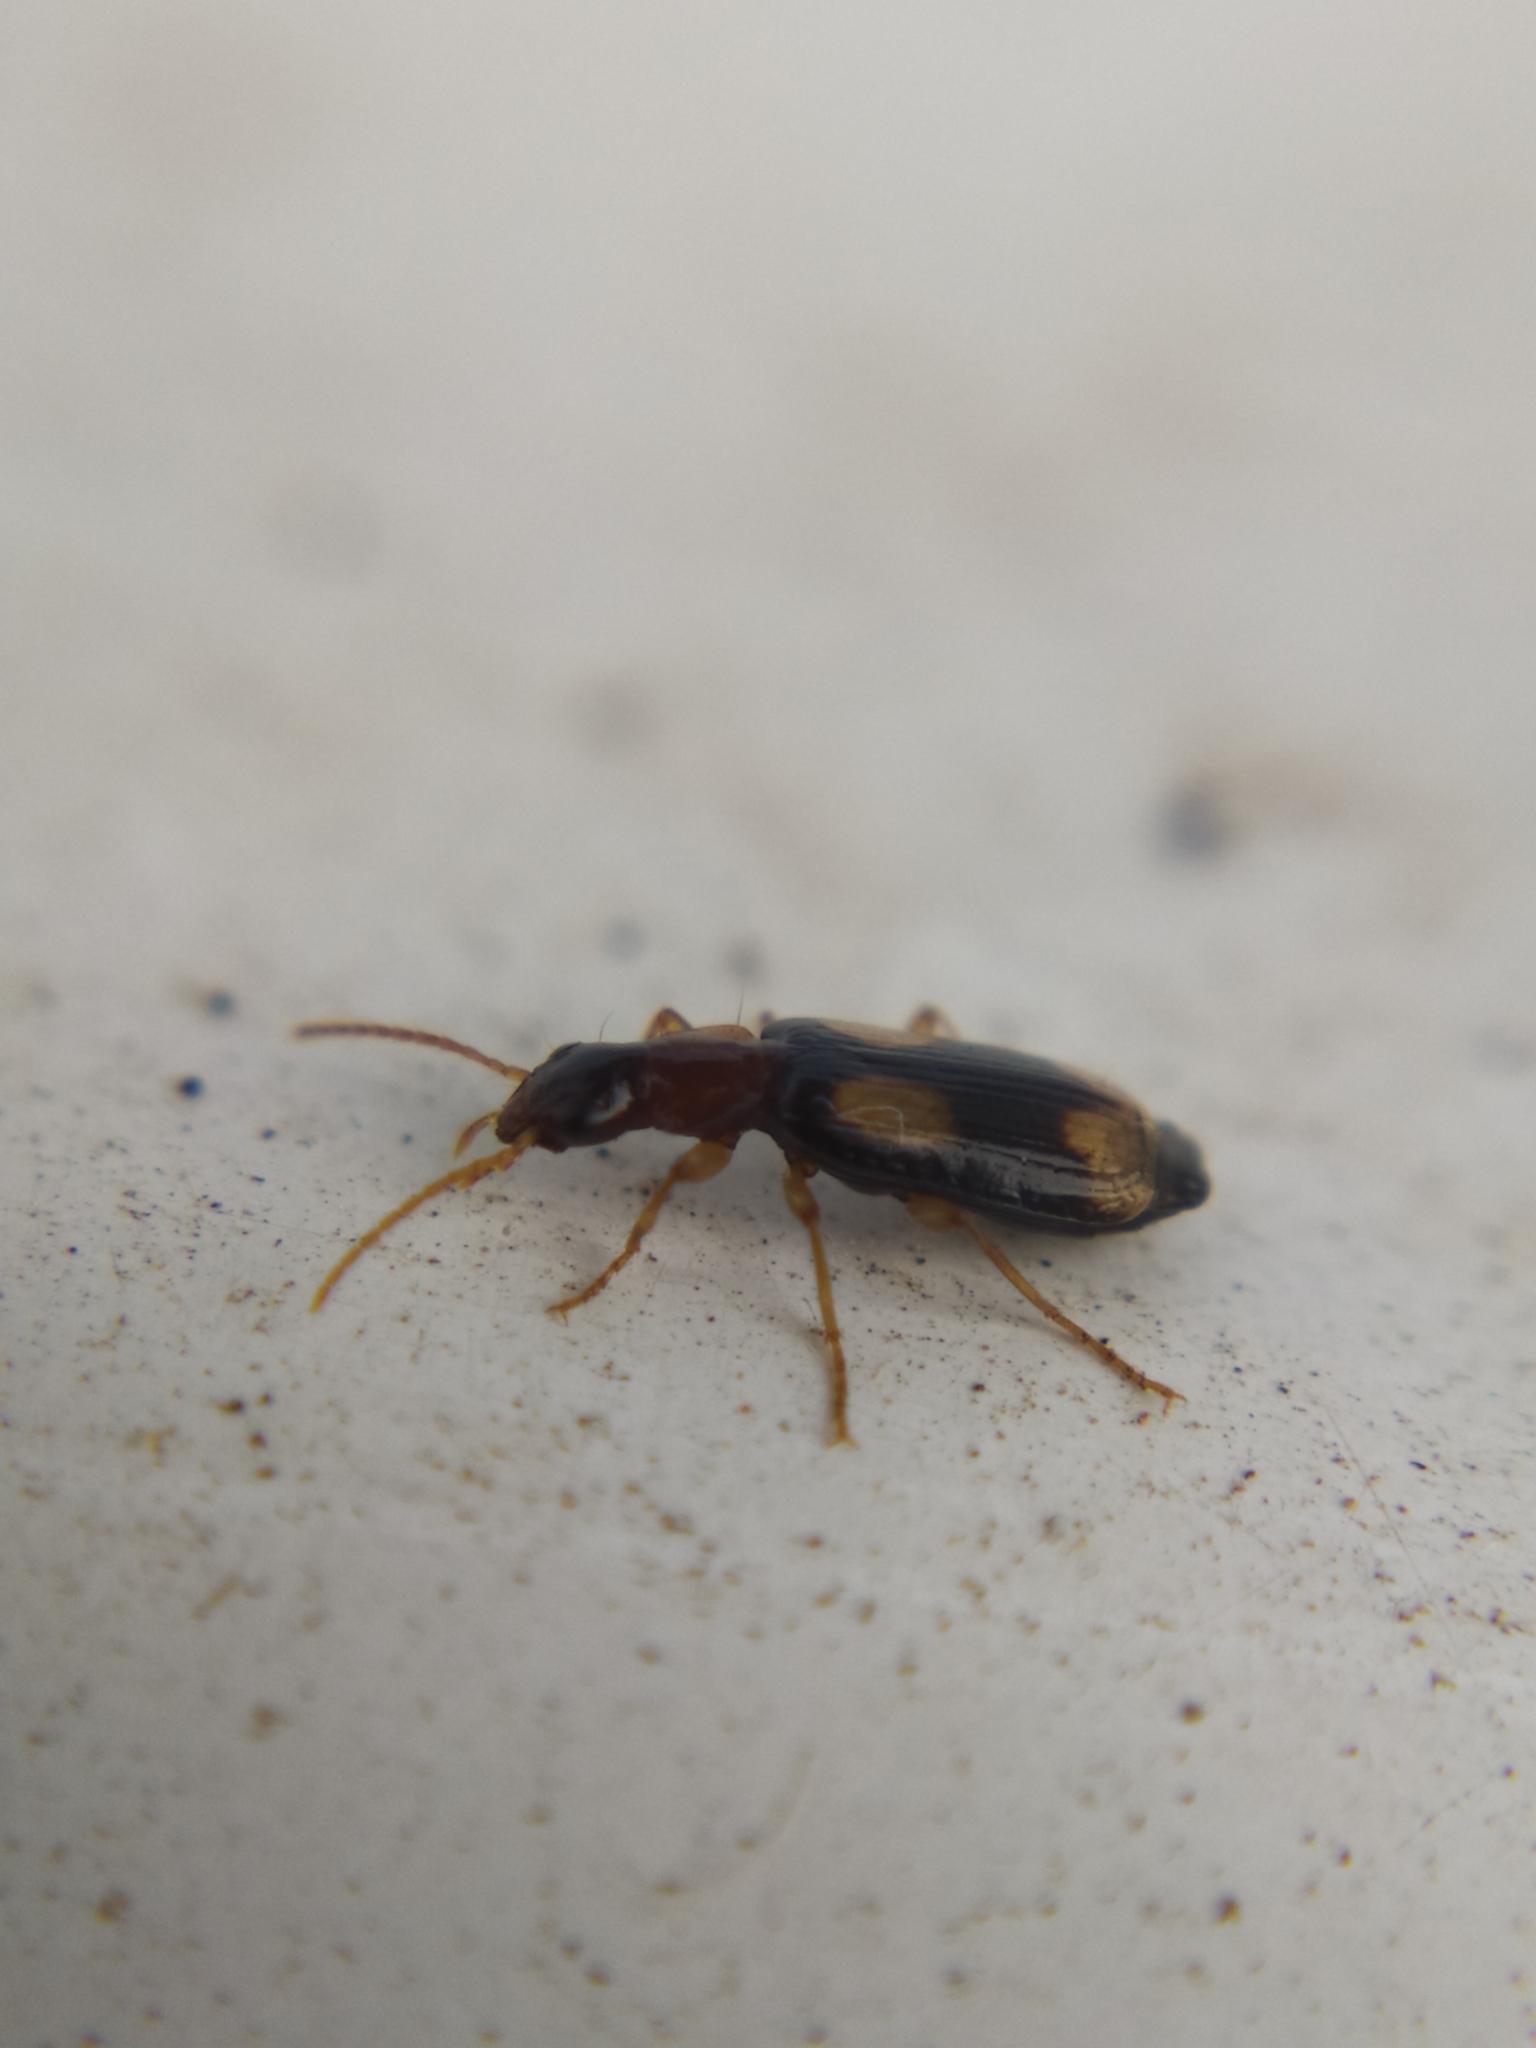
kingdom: Animalia
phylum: Arthropoda
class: Insecta
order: Coleoptera
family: Carabidae
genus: Dromius
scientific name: Dromius quadrimaculatus
